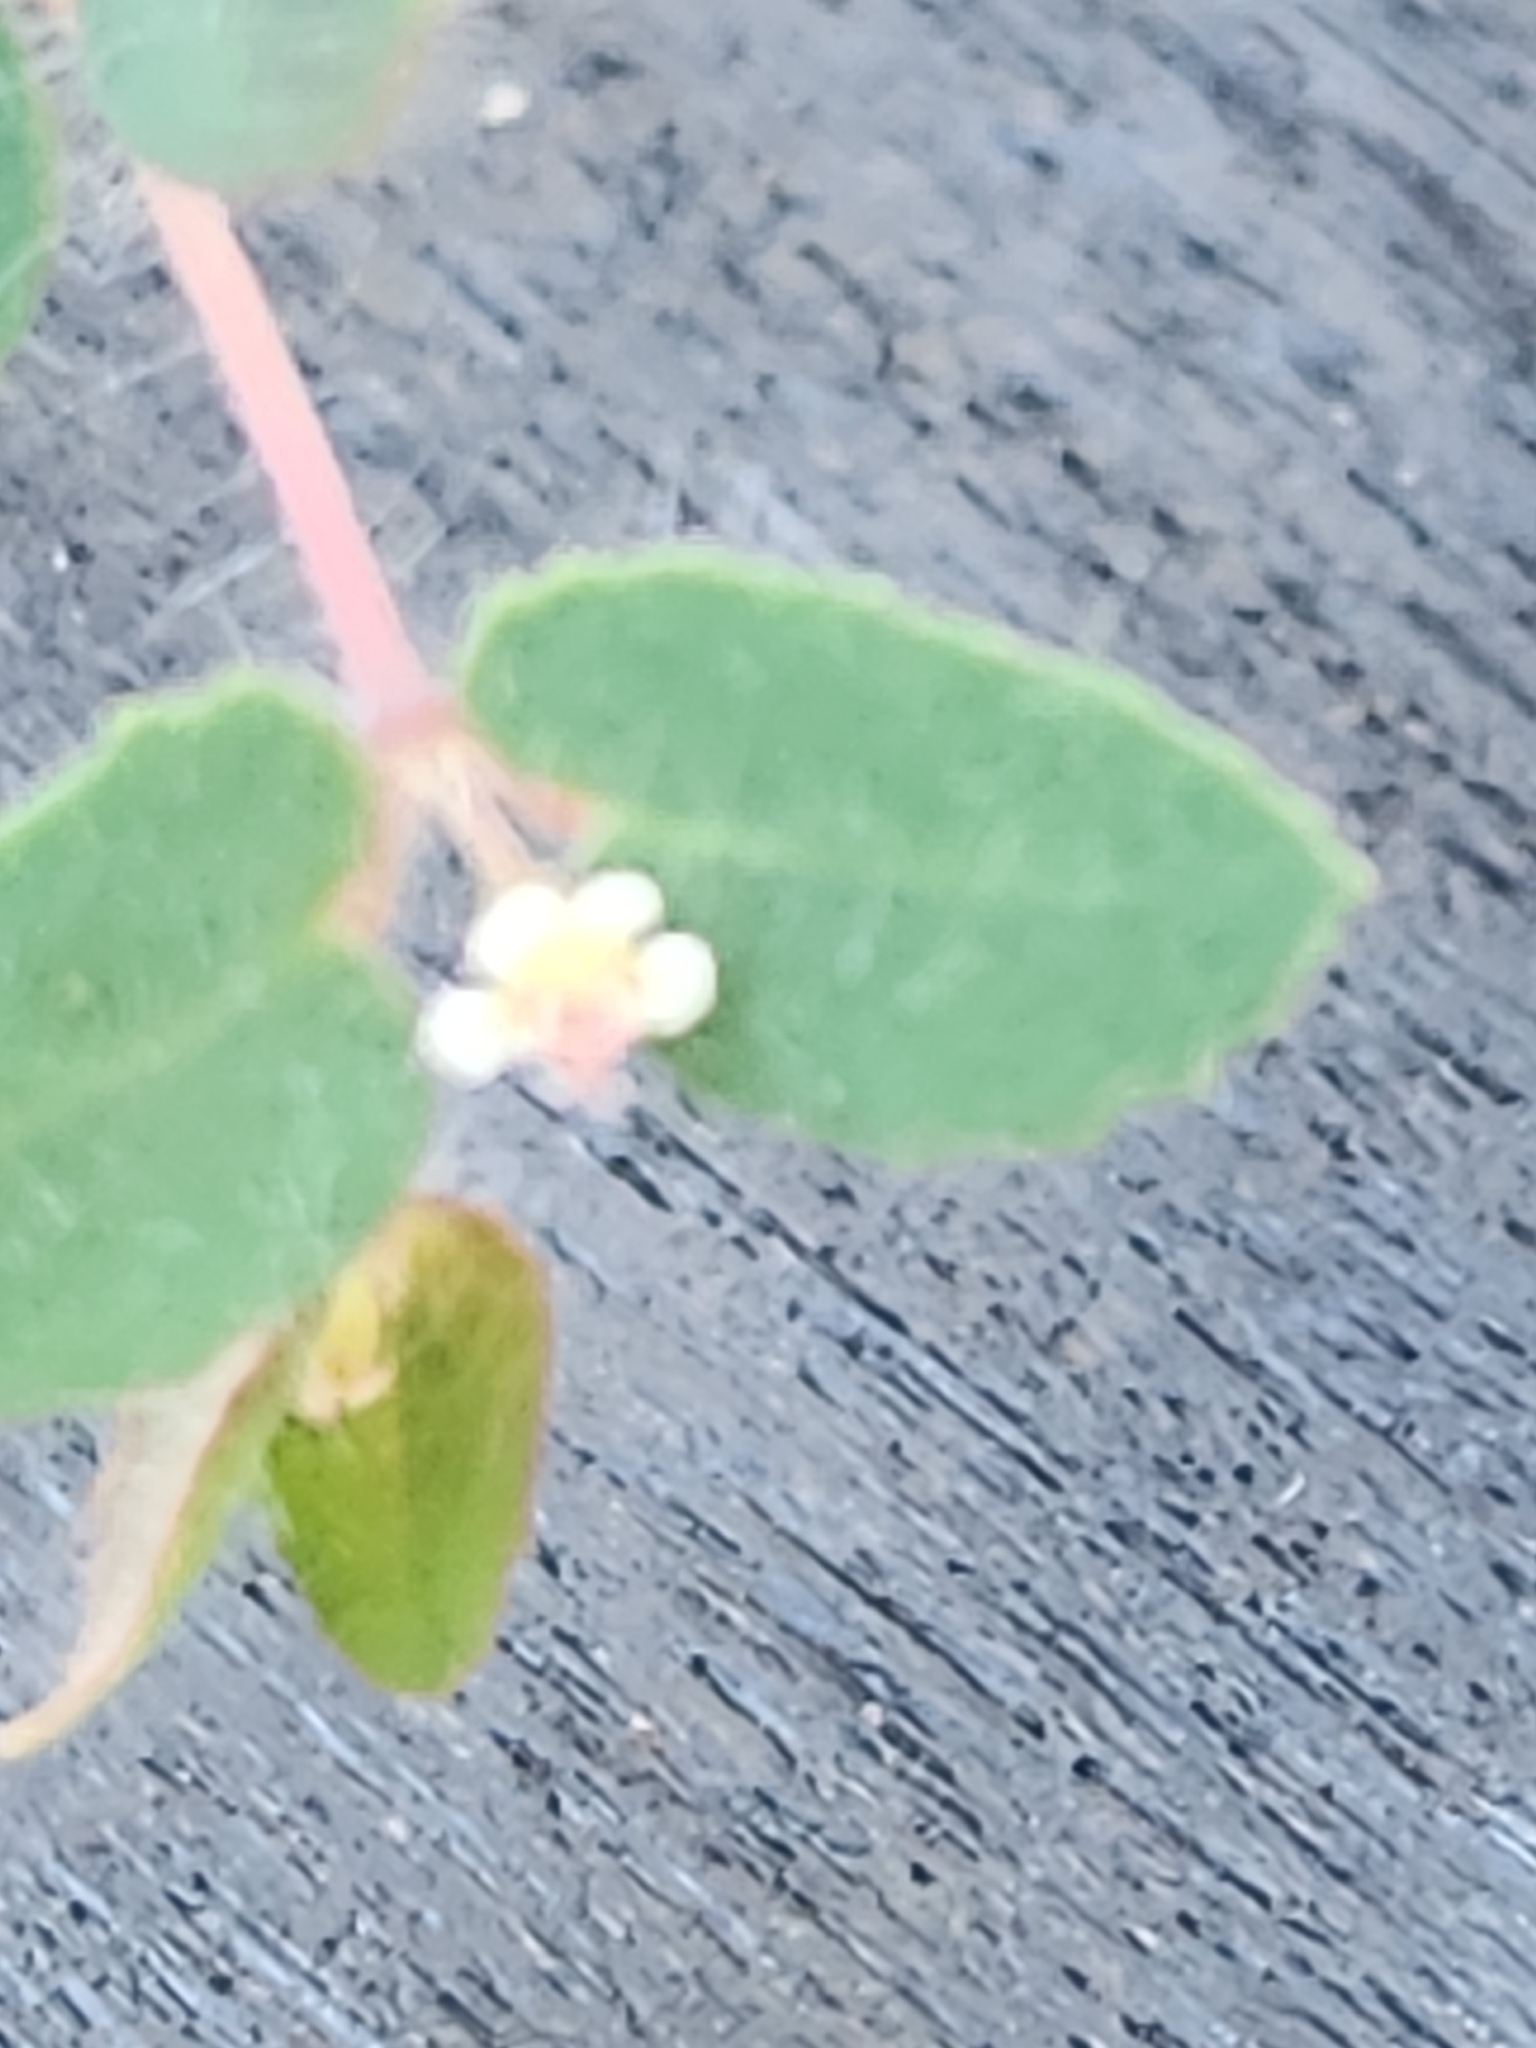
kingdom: Plantae
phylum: Tracheophyta
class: Magnoliopsida
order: Malpighiales
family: Euphorbiaceae
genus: Euphorbia
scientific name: Euphorbia villifera
